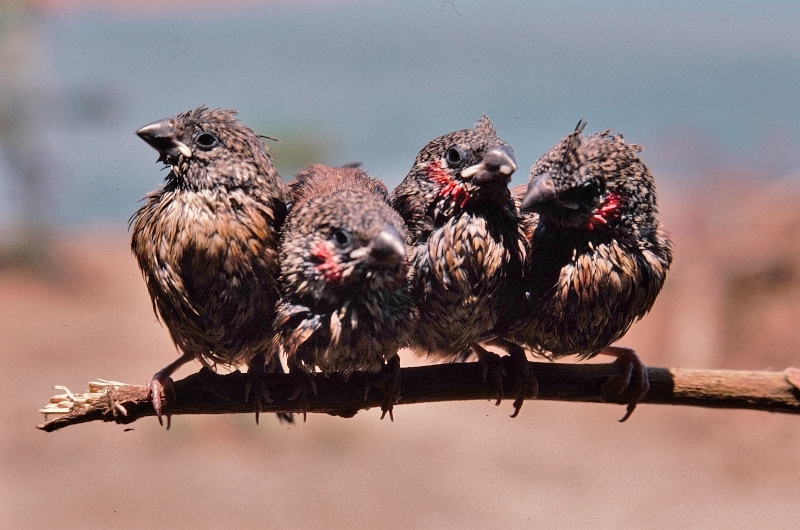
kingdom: Animalia
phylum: Chordata
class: Aves
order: Passeriformes
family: Estrildidae
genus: Amadina
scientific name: Amadina fasciata
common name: Cut-throat finch
